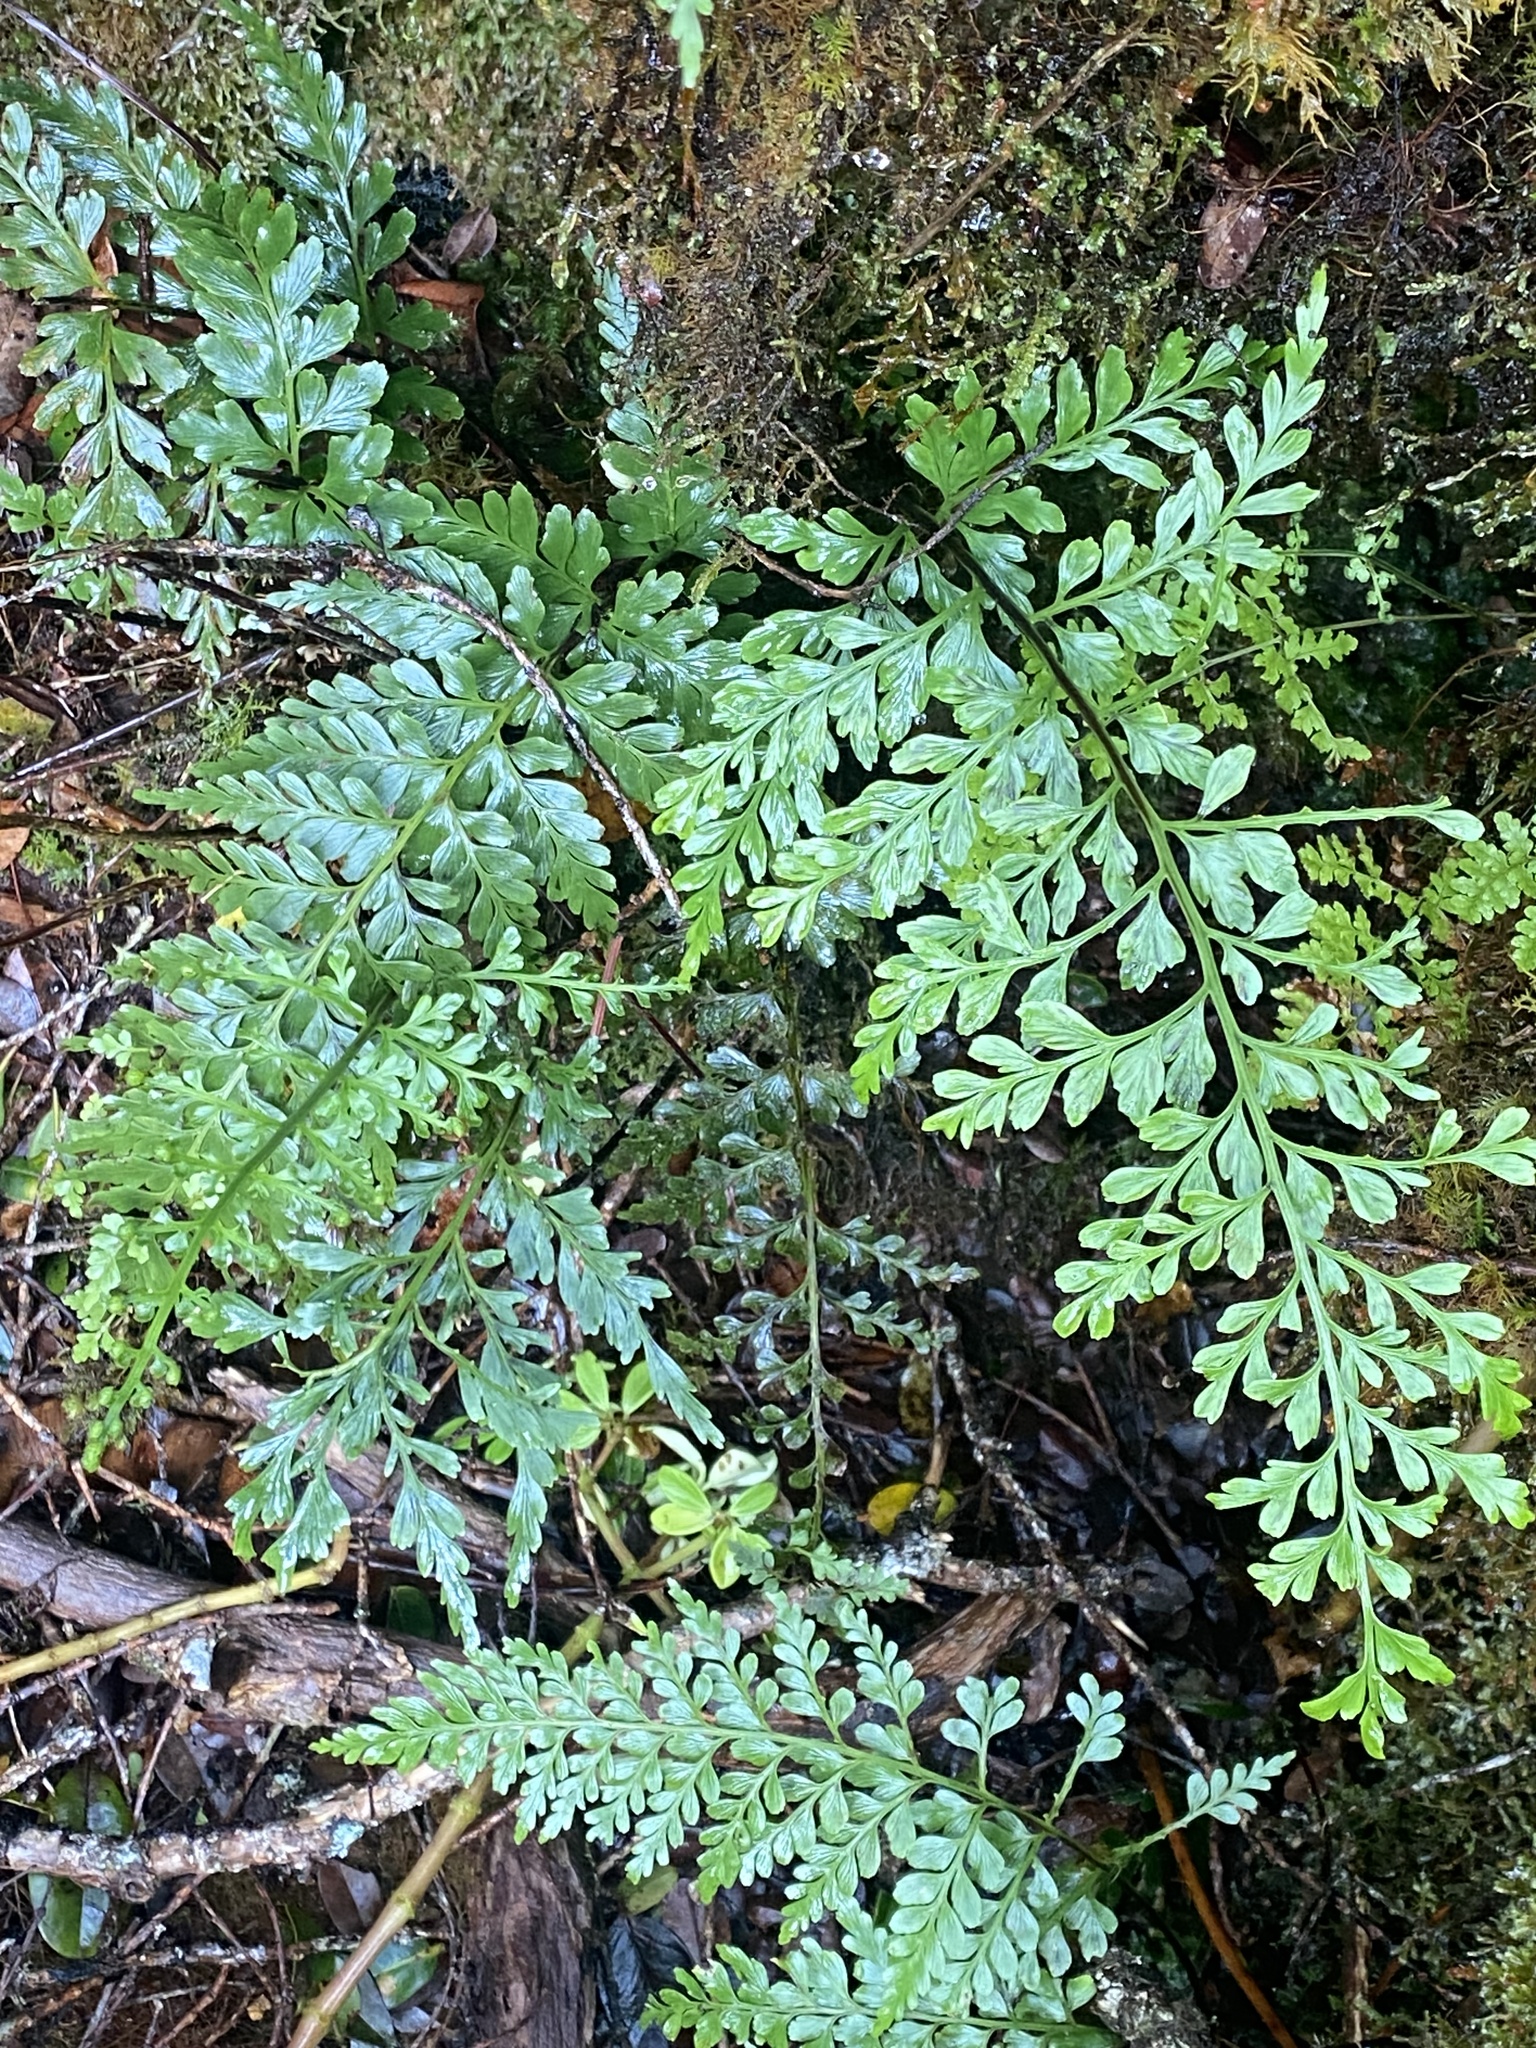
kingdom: Plantae
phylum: Tracheophyta
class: Polypodiopsida
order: Polypodiales
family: Aspleniaceae
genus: Asplenium
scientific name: Asplenium insiticium
